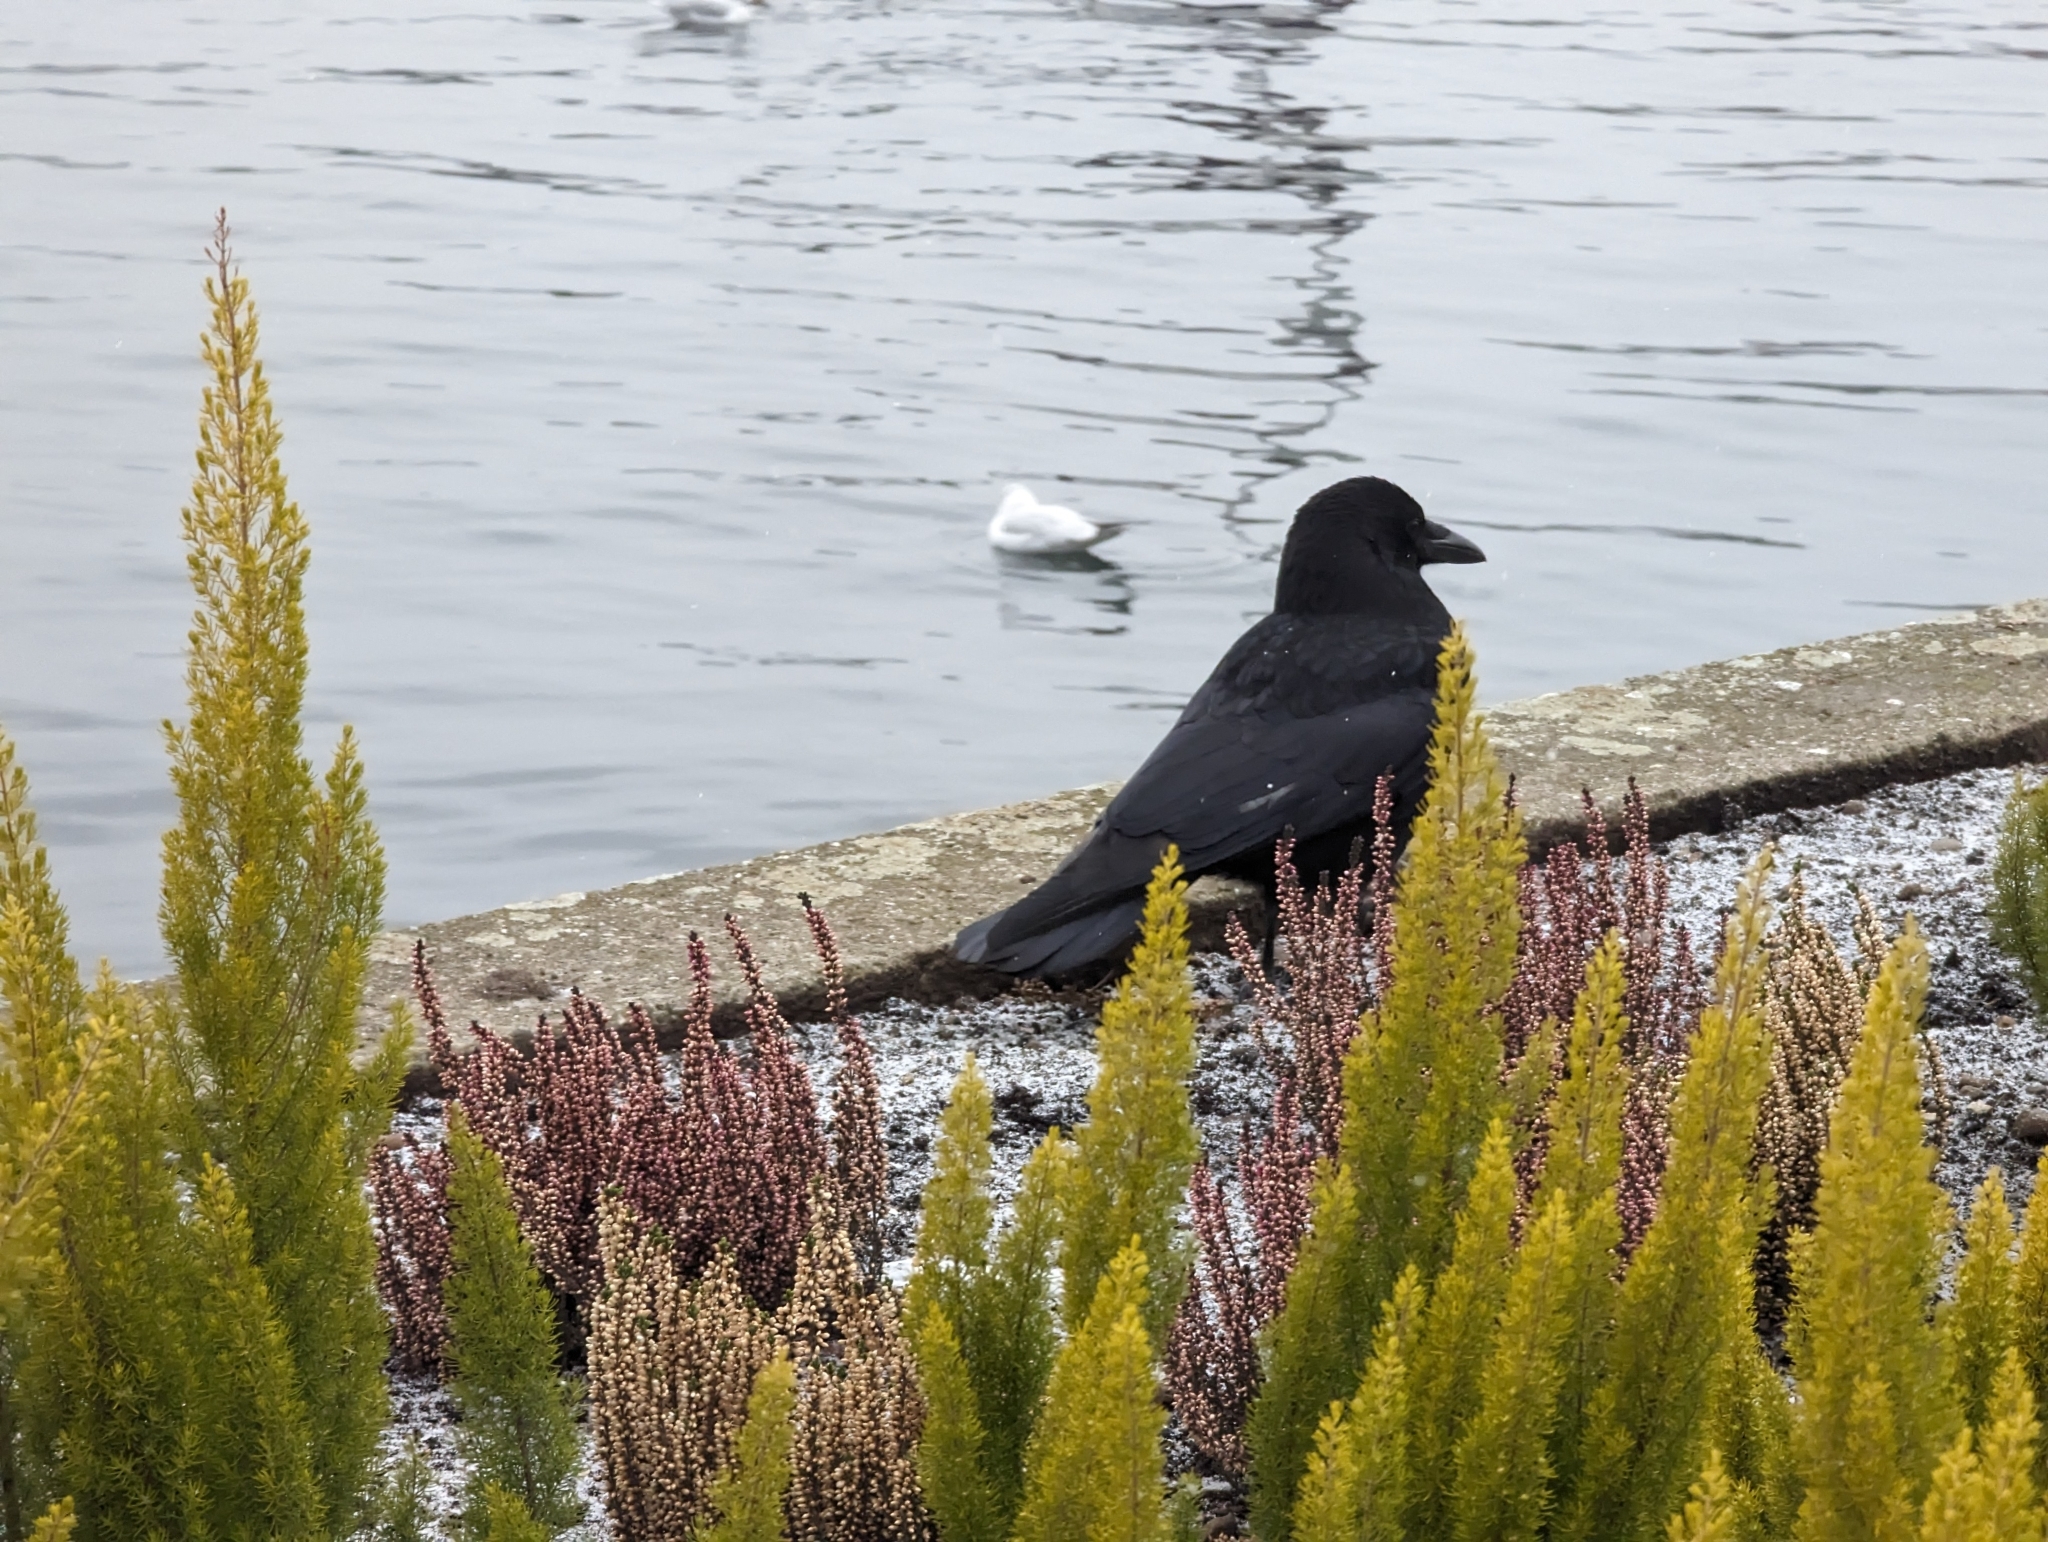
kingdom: Animalia
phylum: Chordata
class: Aves
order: Passeriformes
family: Corvidae
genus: Corvus
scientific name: Corvus corone
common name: Carrion crow
